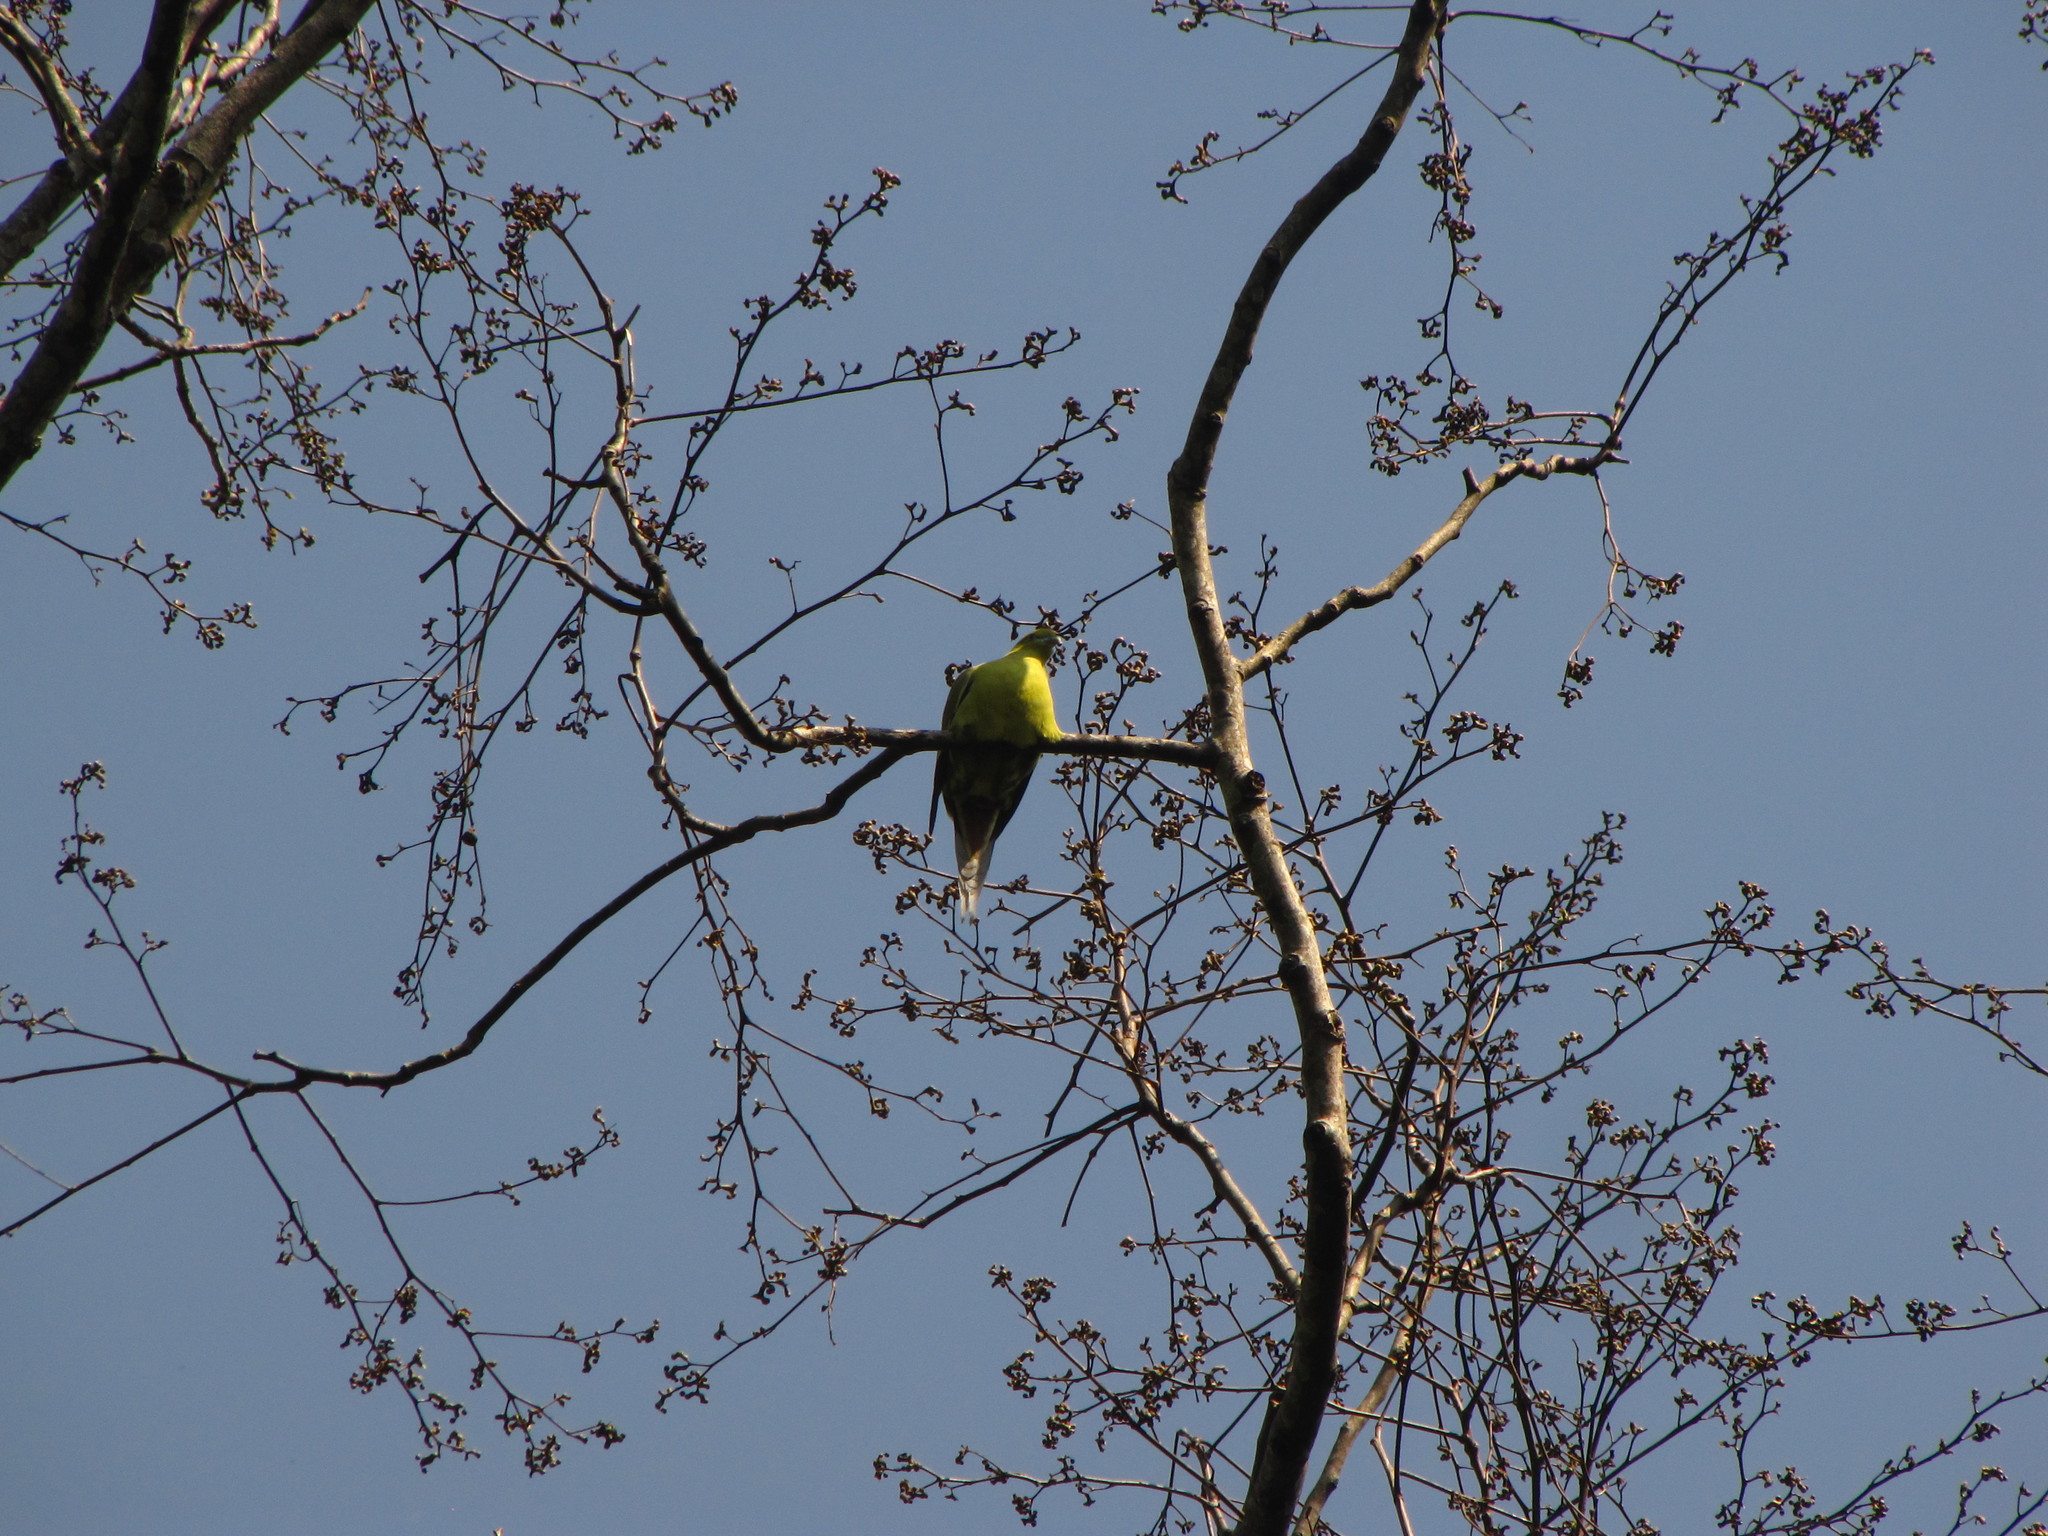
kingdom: Animalia
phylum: Chordata
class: Aves
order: Columbiformes
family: Columbidae
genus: Treron
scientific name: Treron apicauda
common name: Pin-tailed green pigeon
